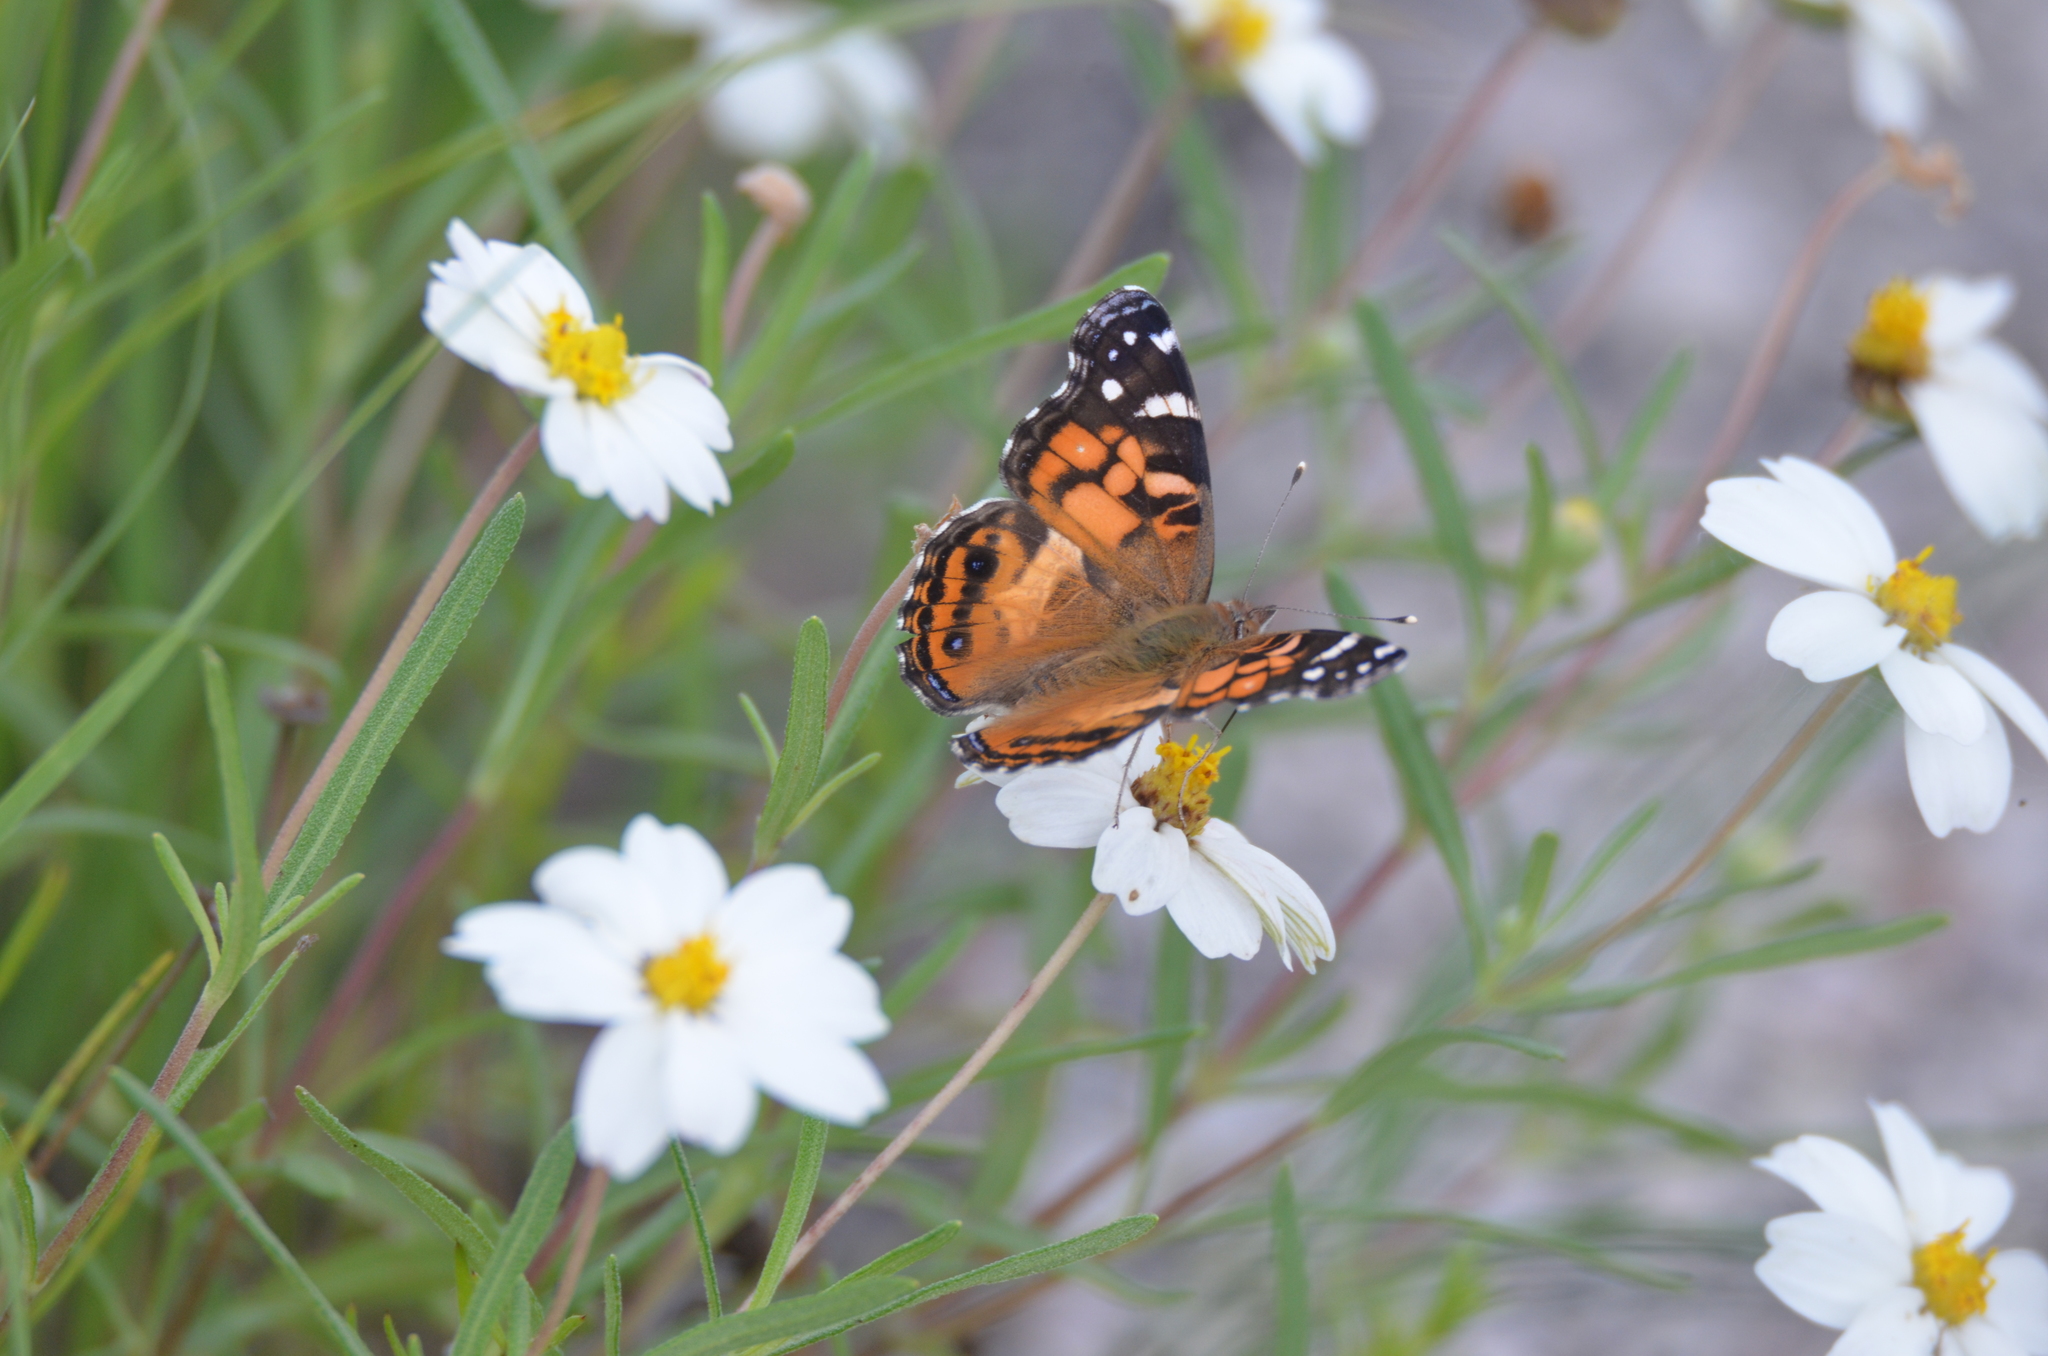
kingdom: Animalia
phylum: Arthropoda
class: Insecta
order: Lepidoptera
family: Nymphalidae
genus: Vanessa
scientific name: Vanessa virginiensis
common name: American lady
